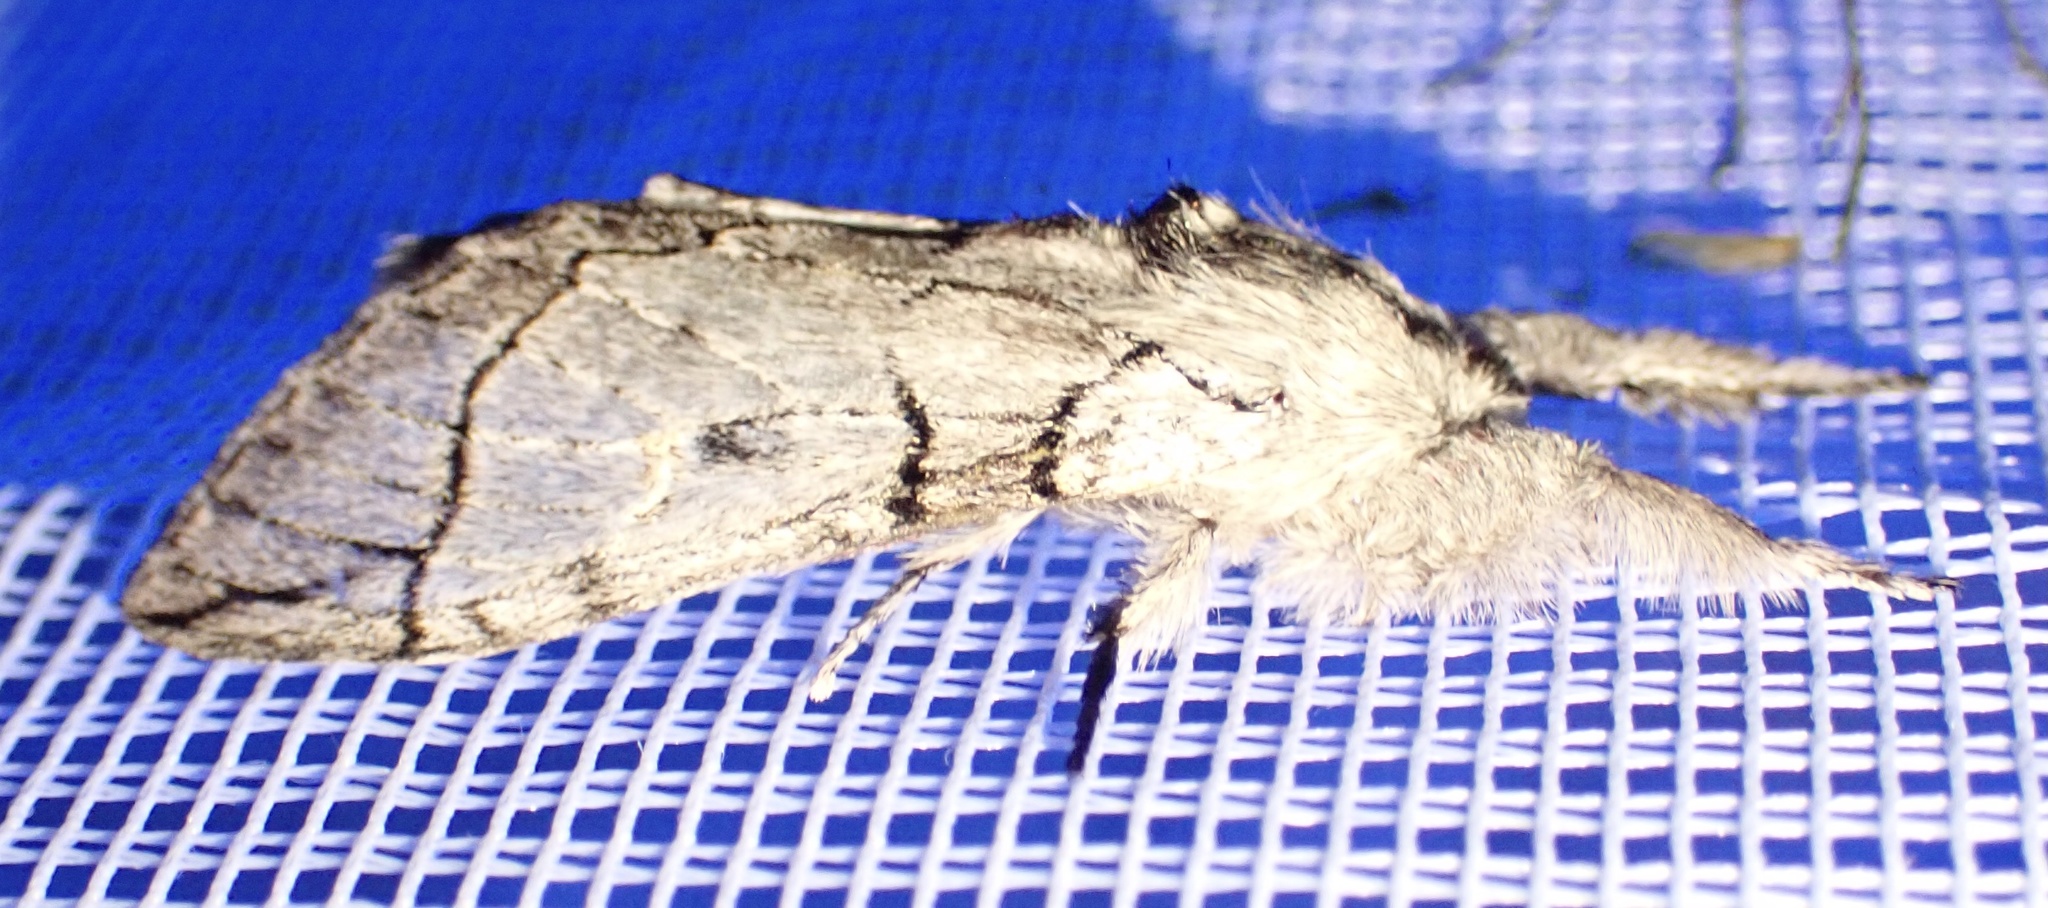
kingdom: Animalia
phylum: Arthropoda
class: Insecta
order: Lepidoptera
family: Notodontidae
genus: Afroplitis
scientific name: Afroplitis dierli
